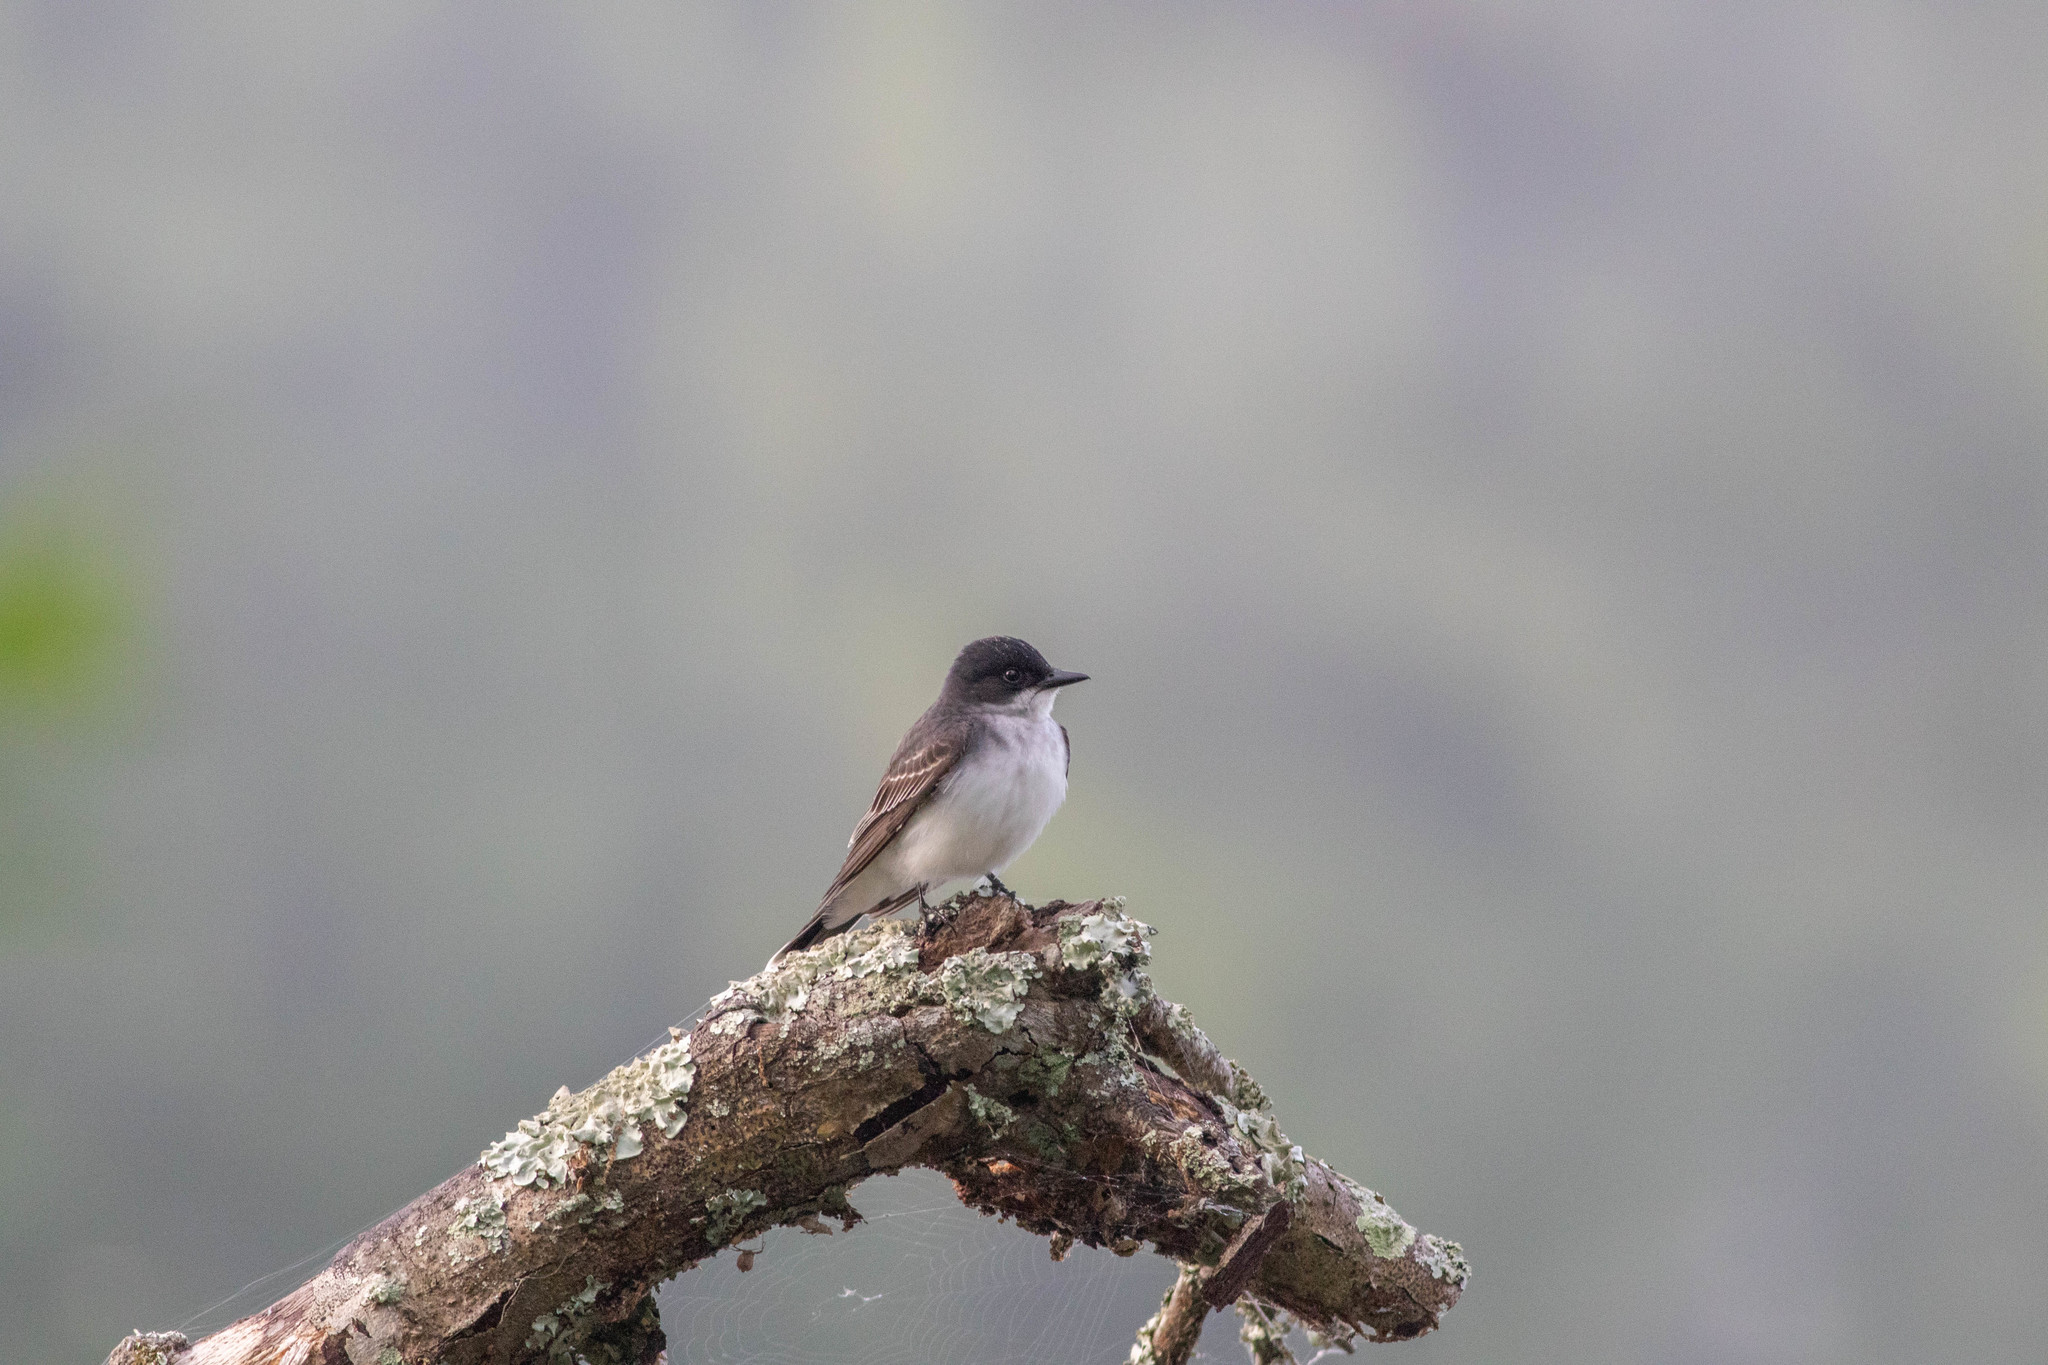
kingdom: Animalia
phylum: Chordata
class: Aves
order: Passeriformes
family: Tyrannidae
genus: Tyrannus
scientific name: Tyrannus tyrannus
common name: Eastern kingbird
